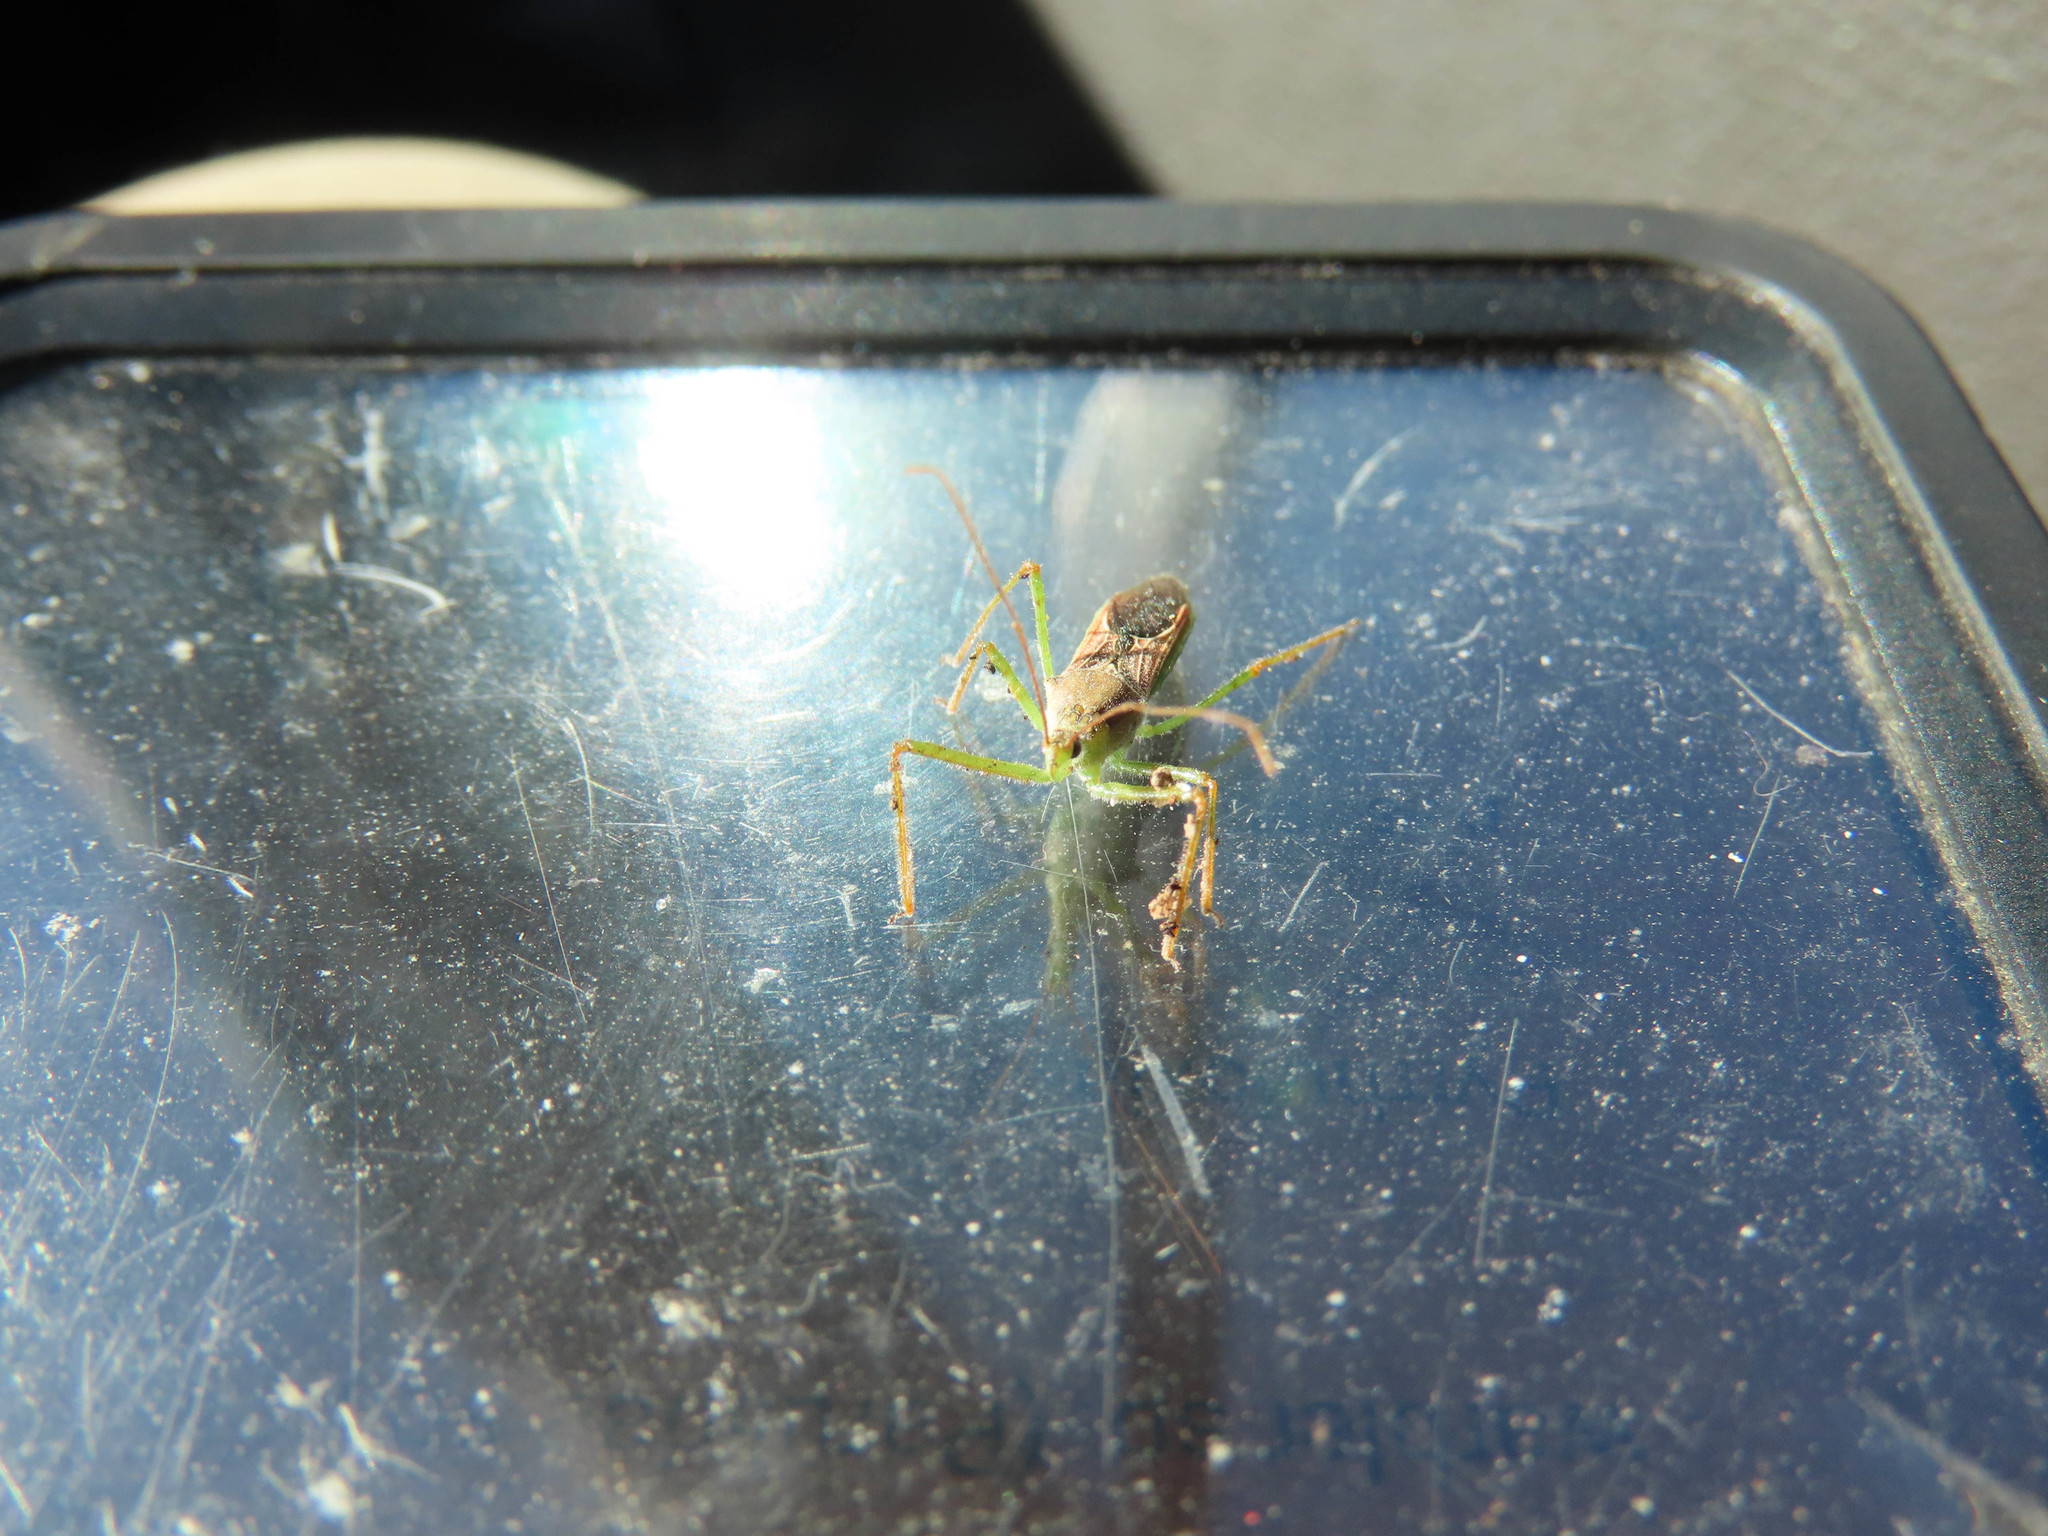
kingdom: Animalia
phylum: Arthropoda
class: Insecta
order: Hemiptera
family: Reduviidae
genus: Zelus
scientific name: Zelus renardii
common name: Assassin bug
